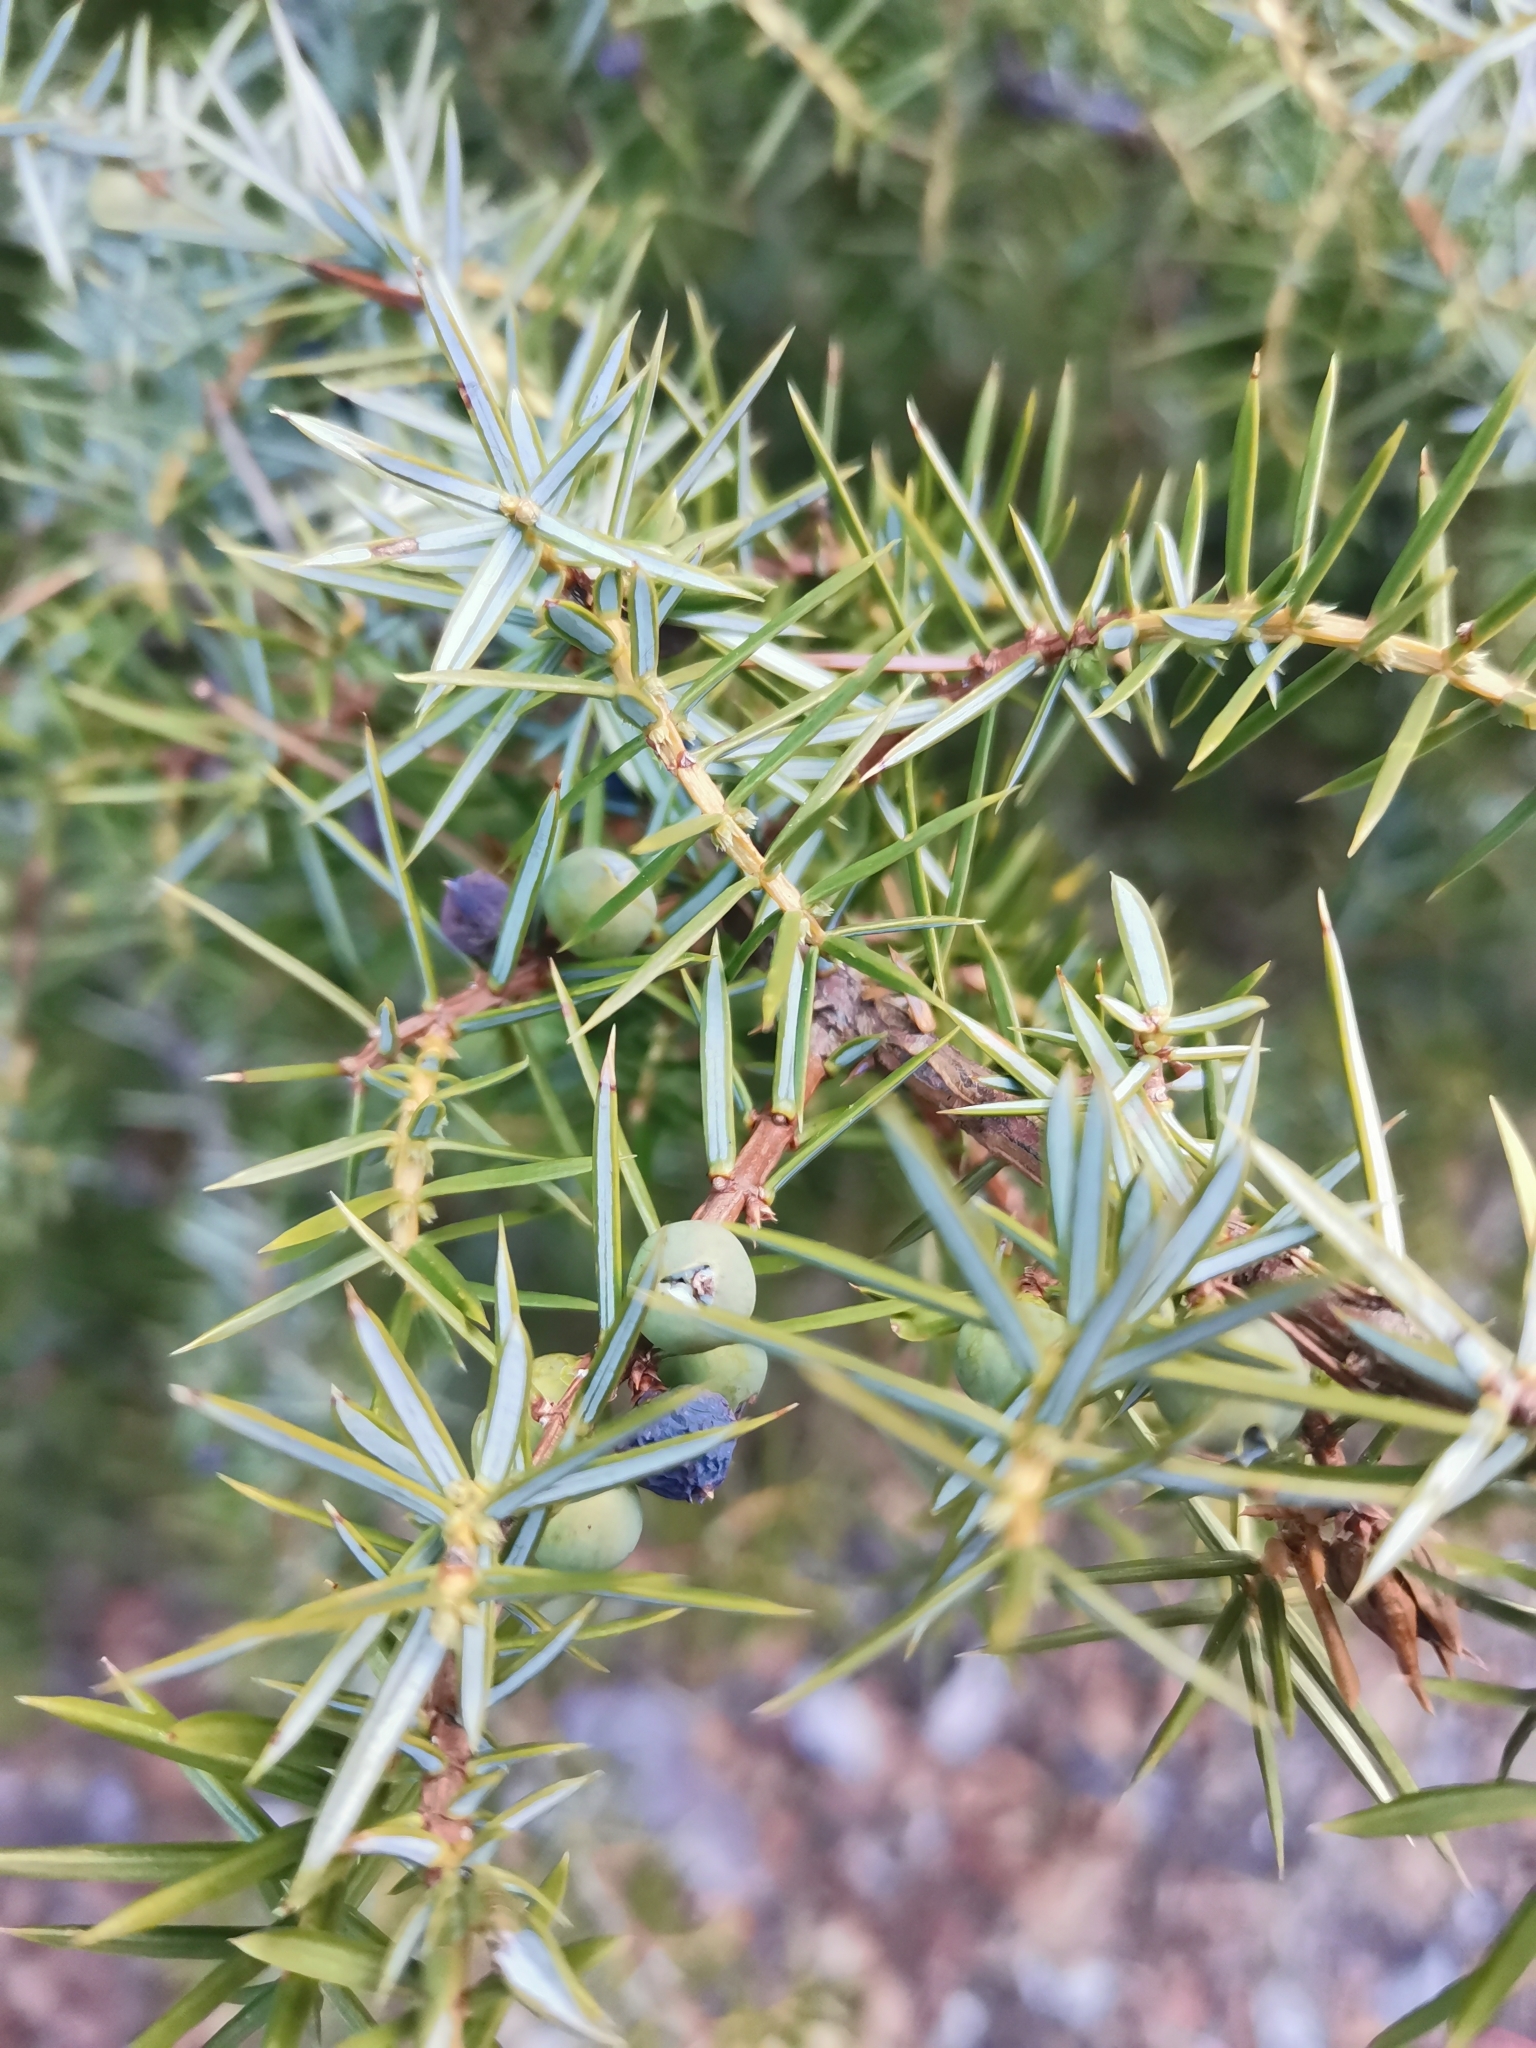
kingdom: Plantae
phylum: Tracheophyta
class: Pinopsida
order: Pinales
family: Cupressaceae
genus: Juniperus
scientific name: Juniperus communis
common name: Common juniper
